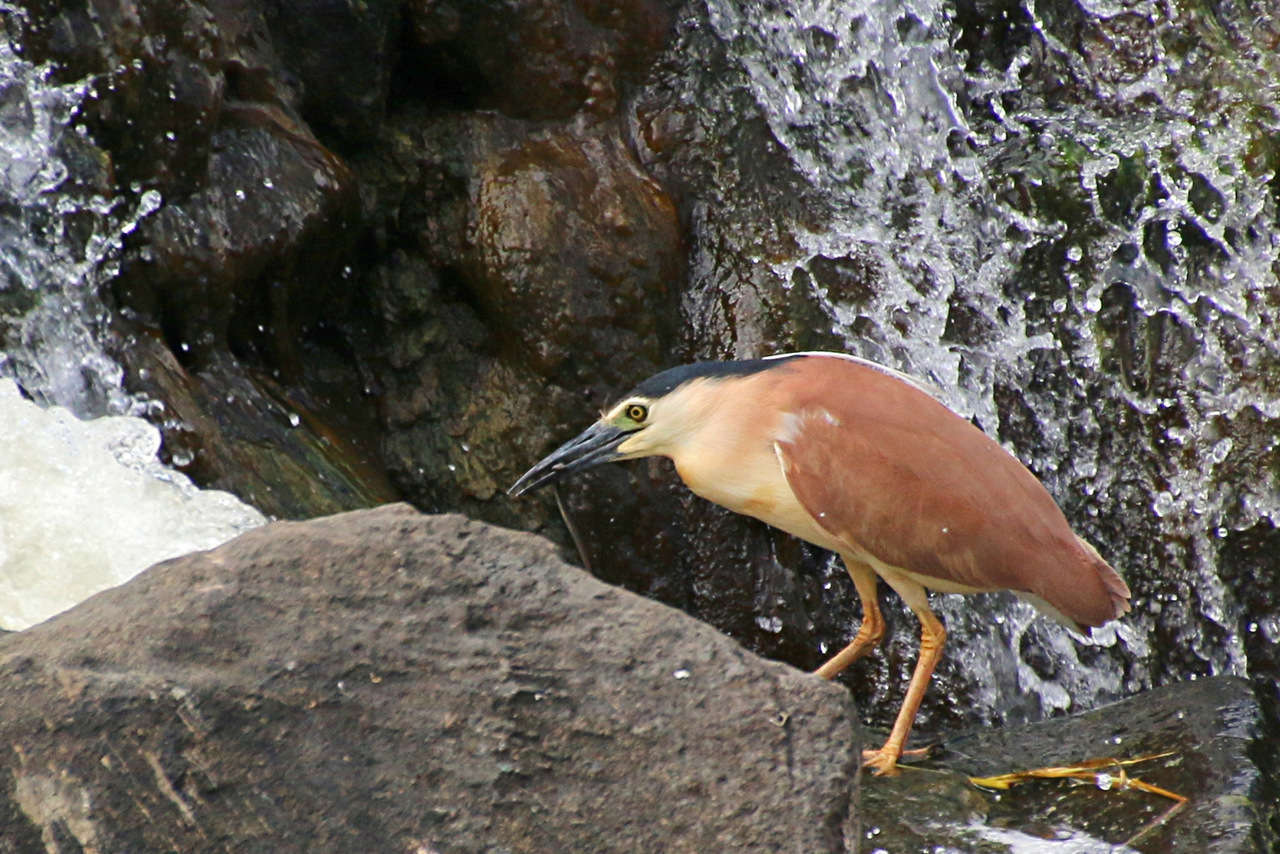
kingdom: Animalia
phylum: Chordata
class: Aves
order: Pelecaniformes
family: Ardeidae
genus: Nycticorax
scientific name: Nycticorax caledonicus
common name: Rufous night-heron
